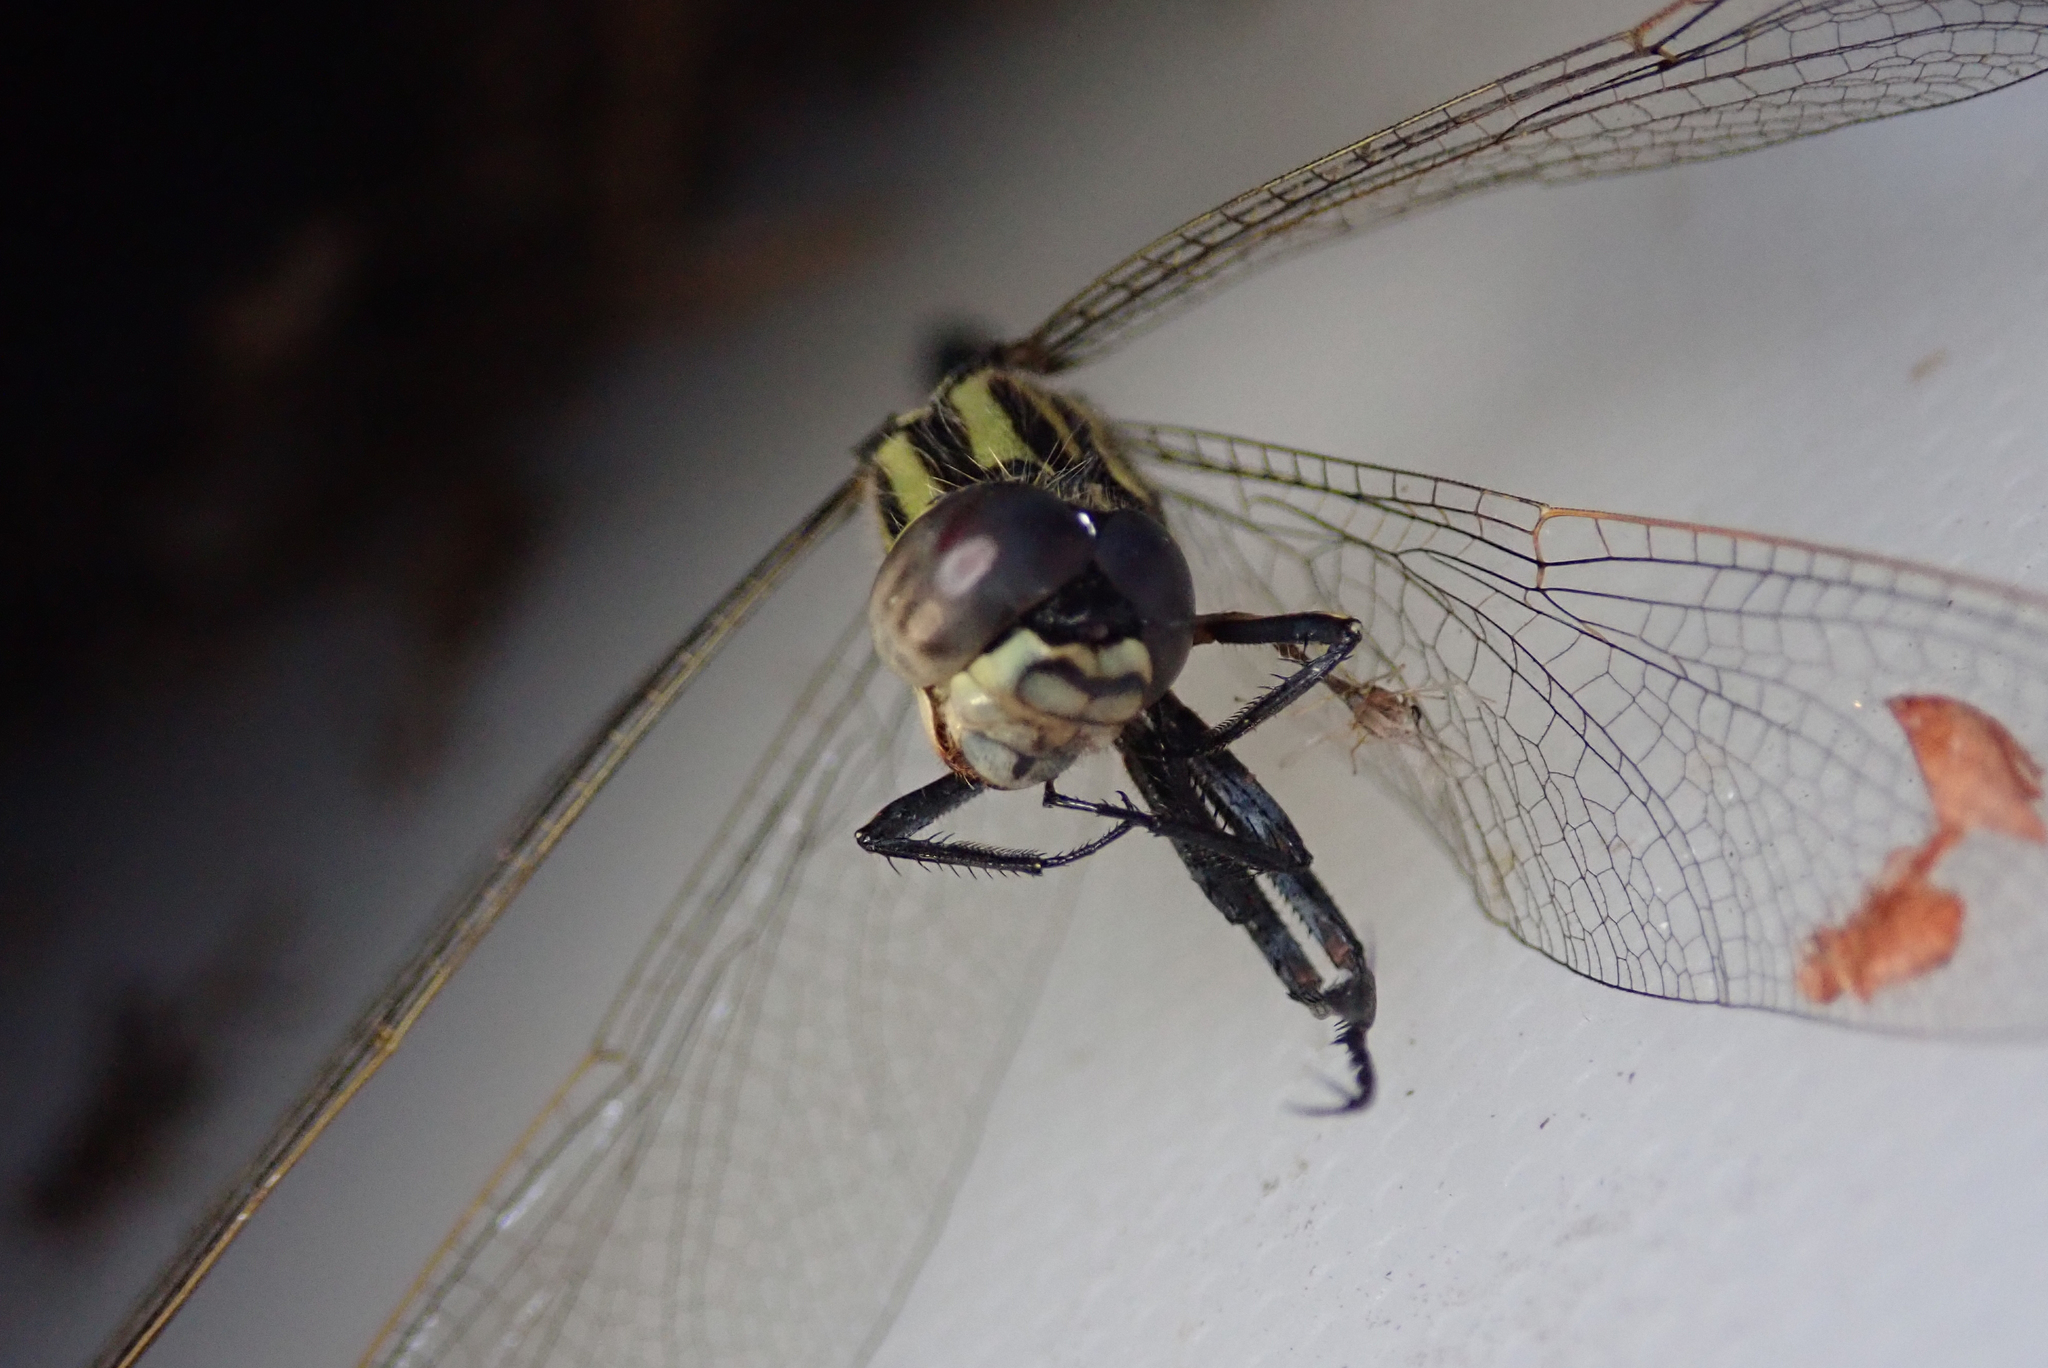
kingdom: Animalia
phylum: Arthropoda
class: Insecta
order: Odonata
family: Libellulidae
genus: Orthetrum
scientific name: Orthetrum icteromelas
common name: Spectacled skimmer
